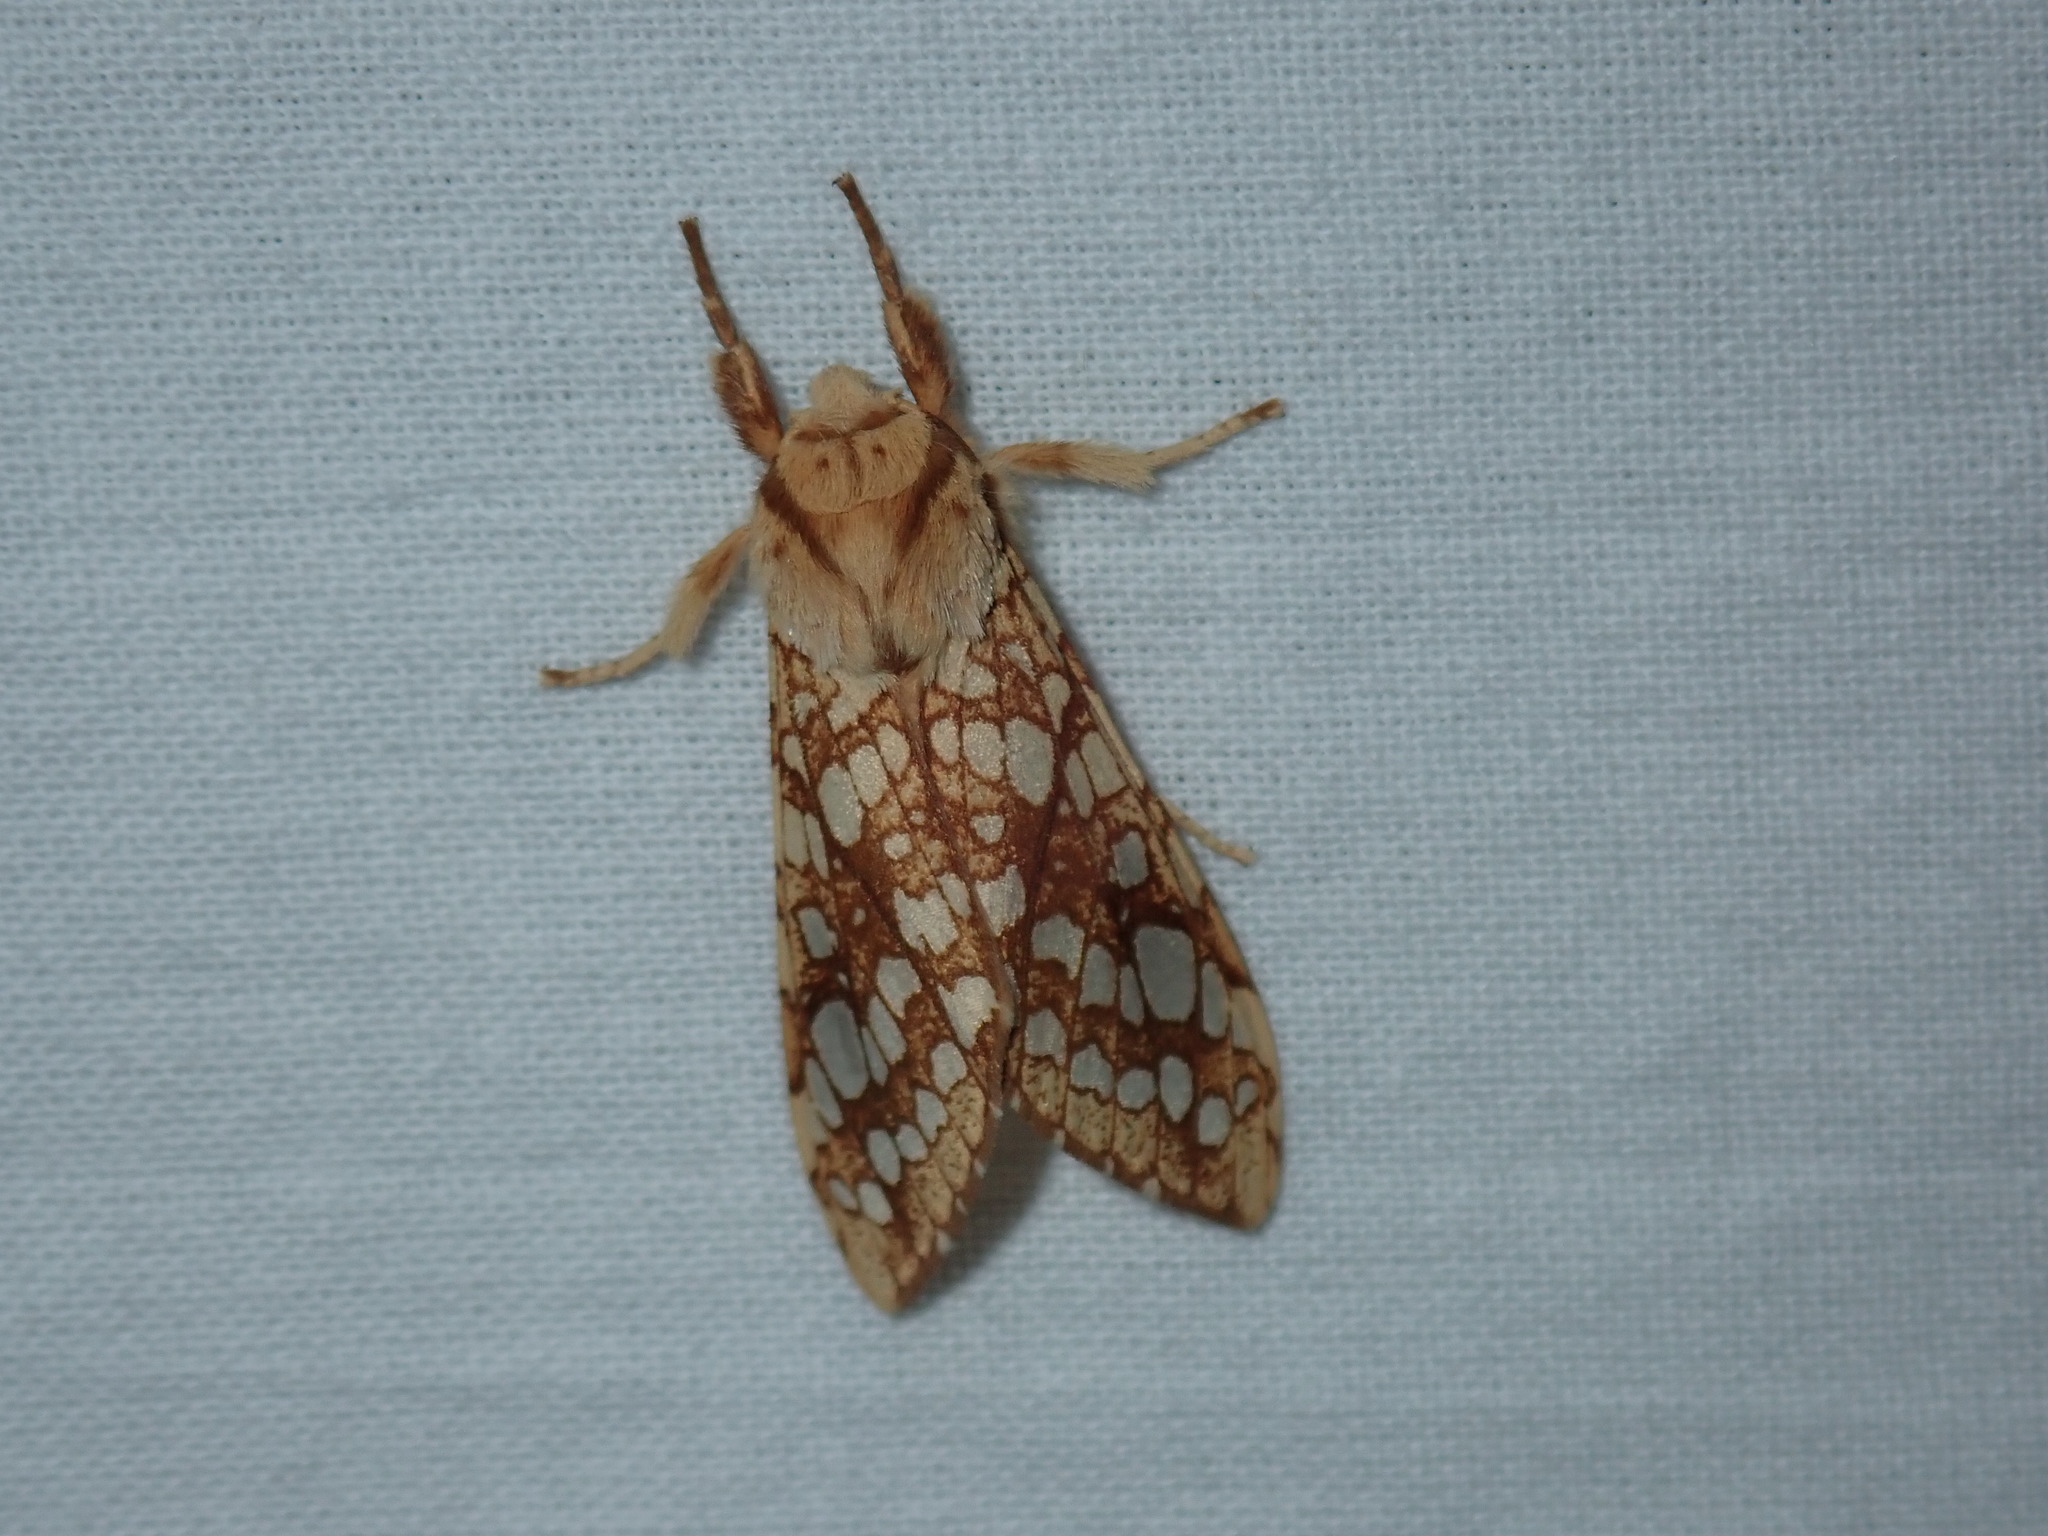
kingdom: Animalia
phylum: Arthropoda
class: Insecta
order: Lepidoptera
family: Erebidae
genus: Lophocampa
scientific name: Lophocampa caryae
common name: Hickory tussock moth
